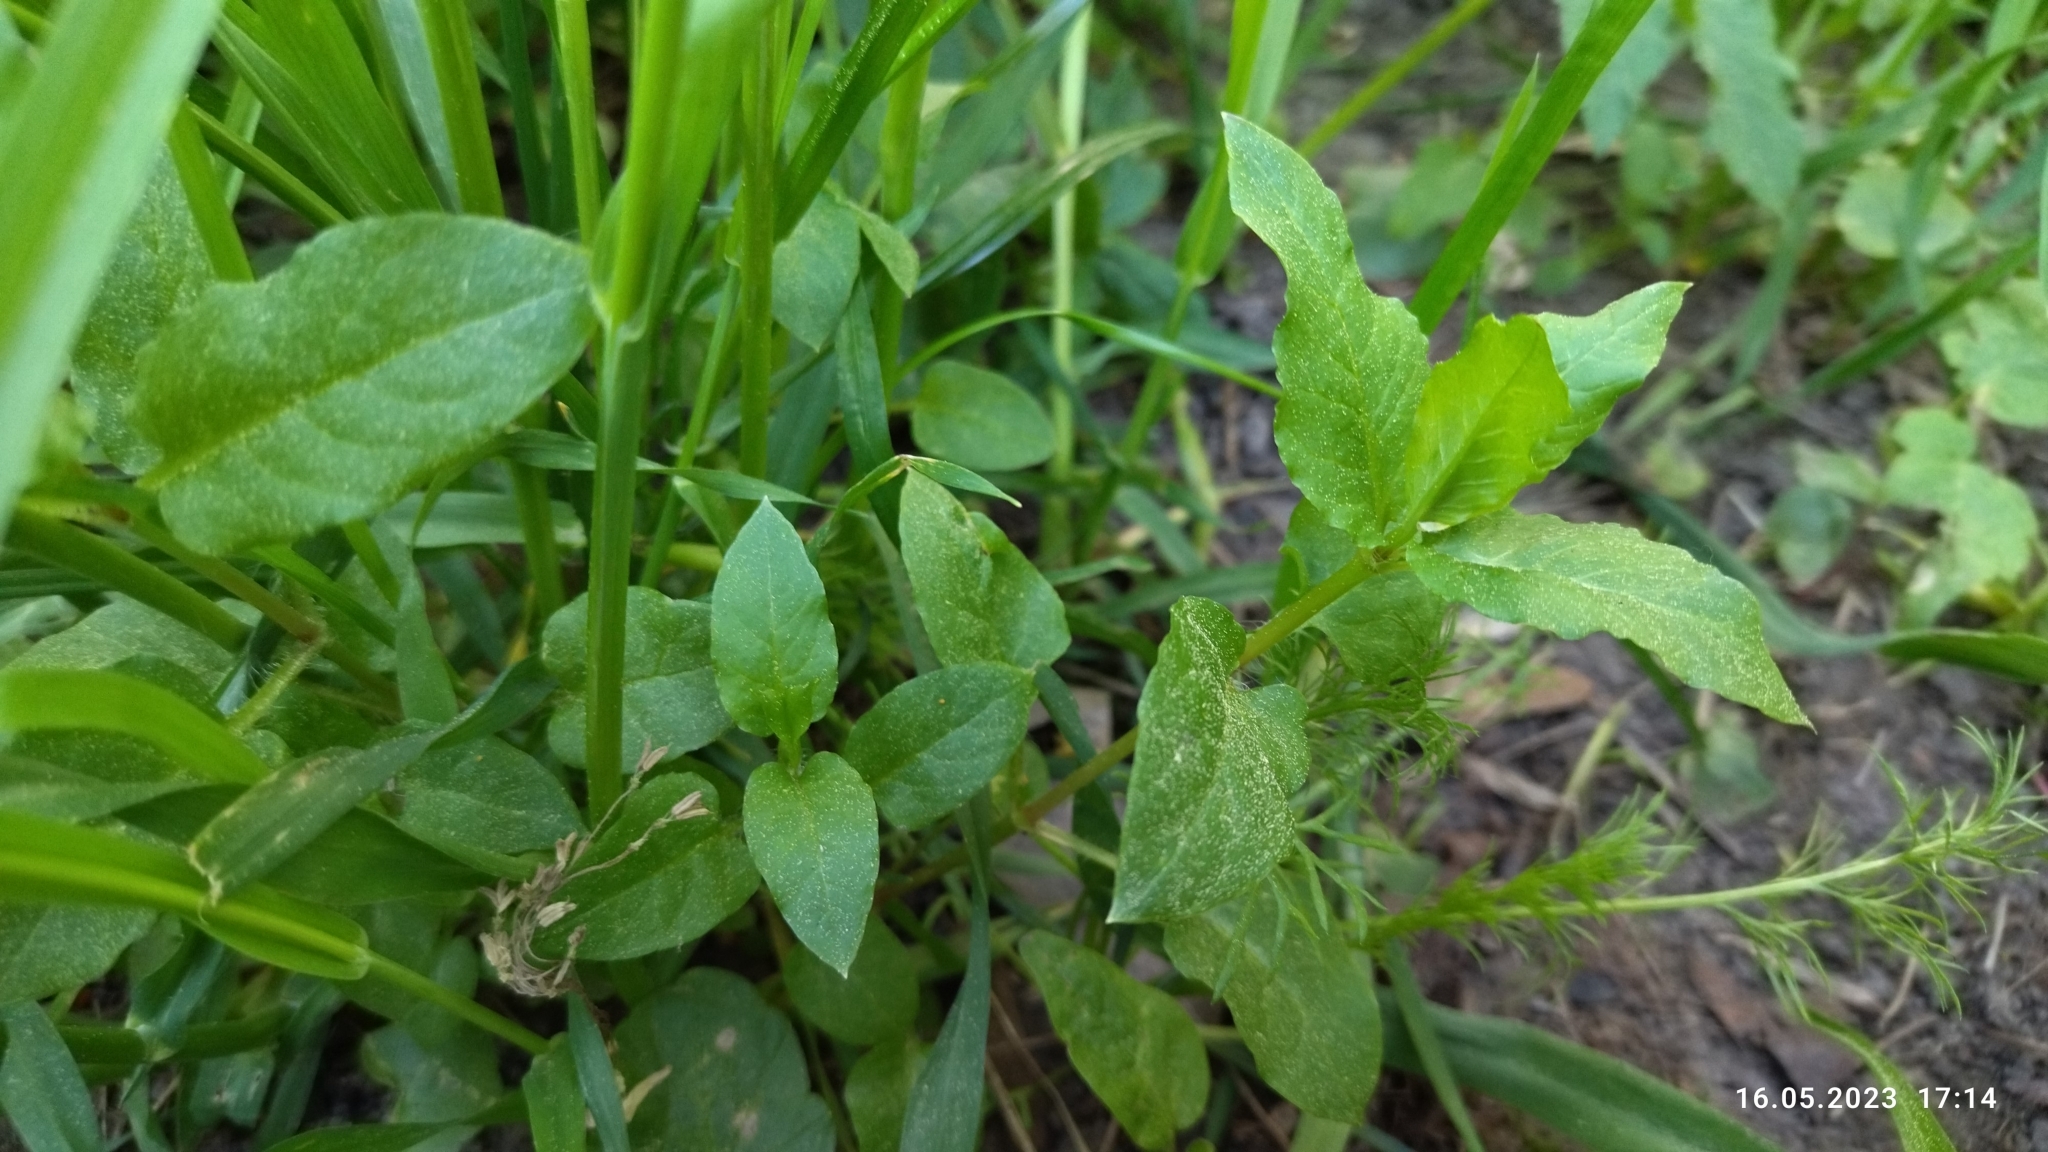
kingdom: Plantae
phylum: Tracheophyta
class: Magnoliopsida
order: Caryophyllales
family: Caryophyllaceae
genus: Stellaria
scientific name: Stellaria aquatica
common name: Water chickweed
